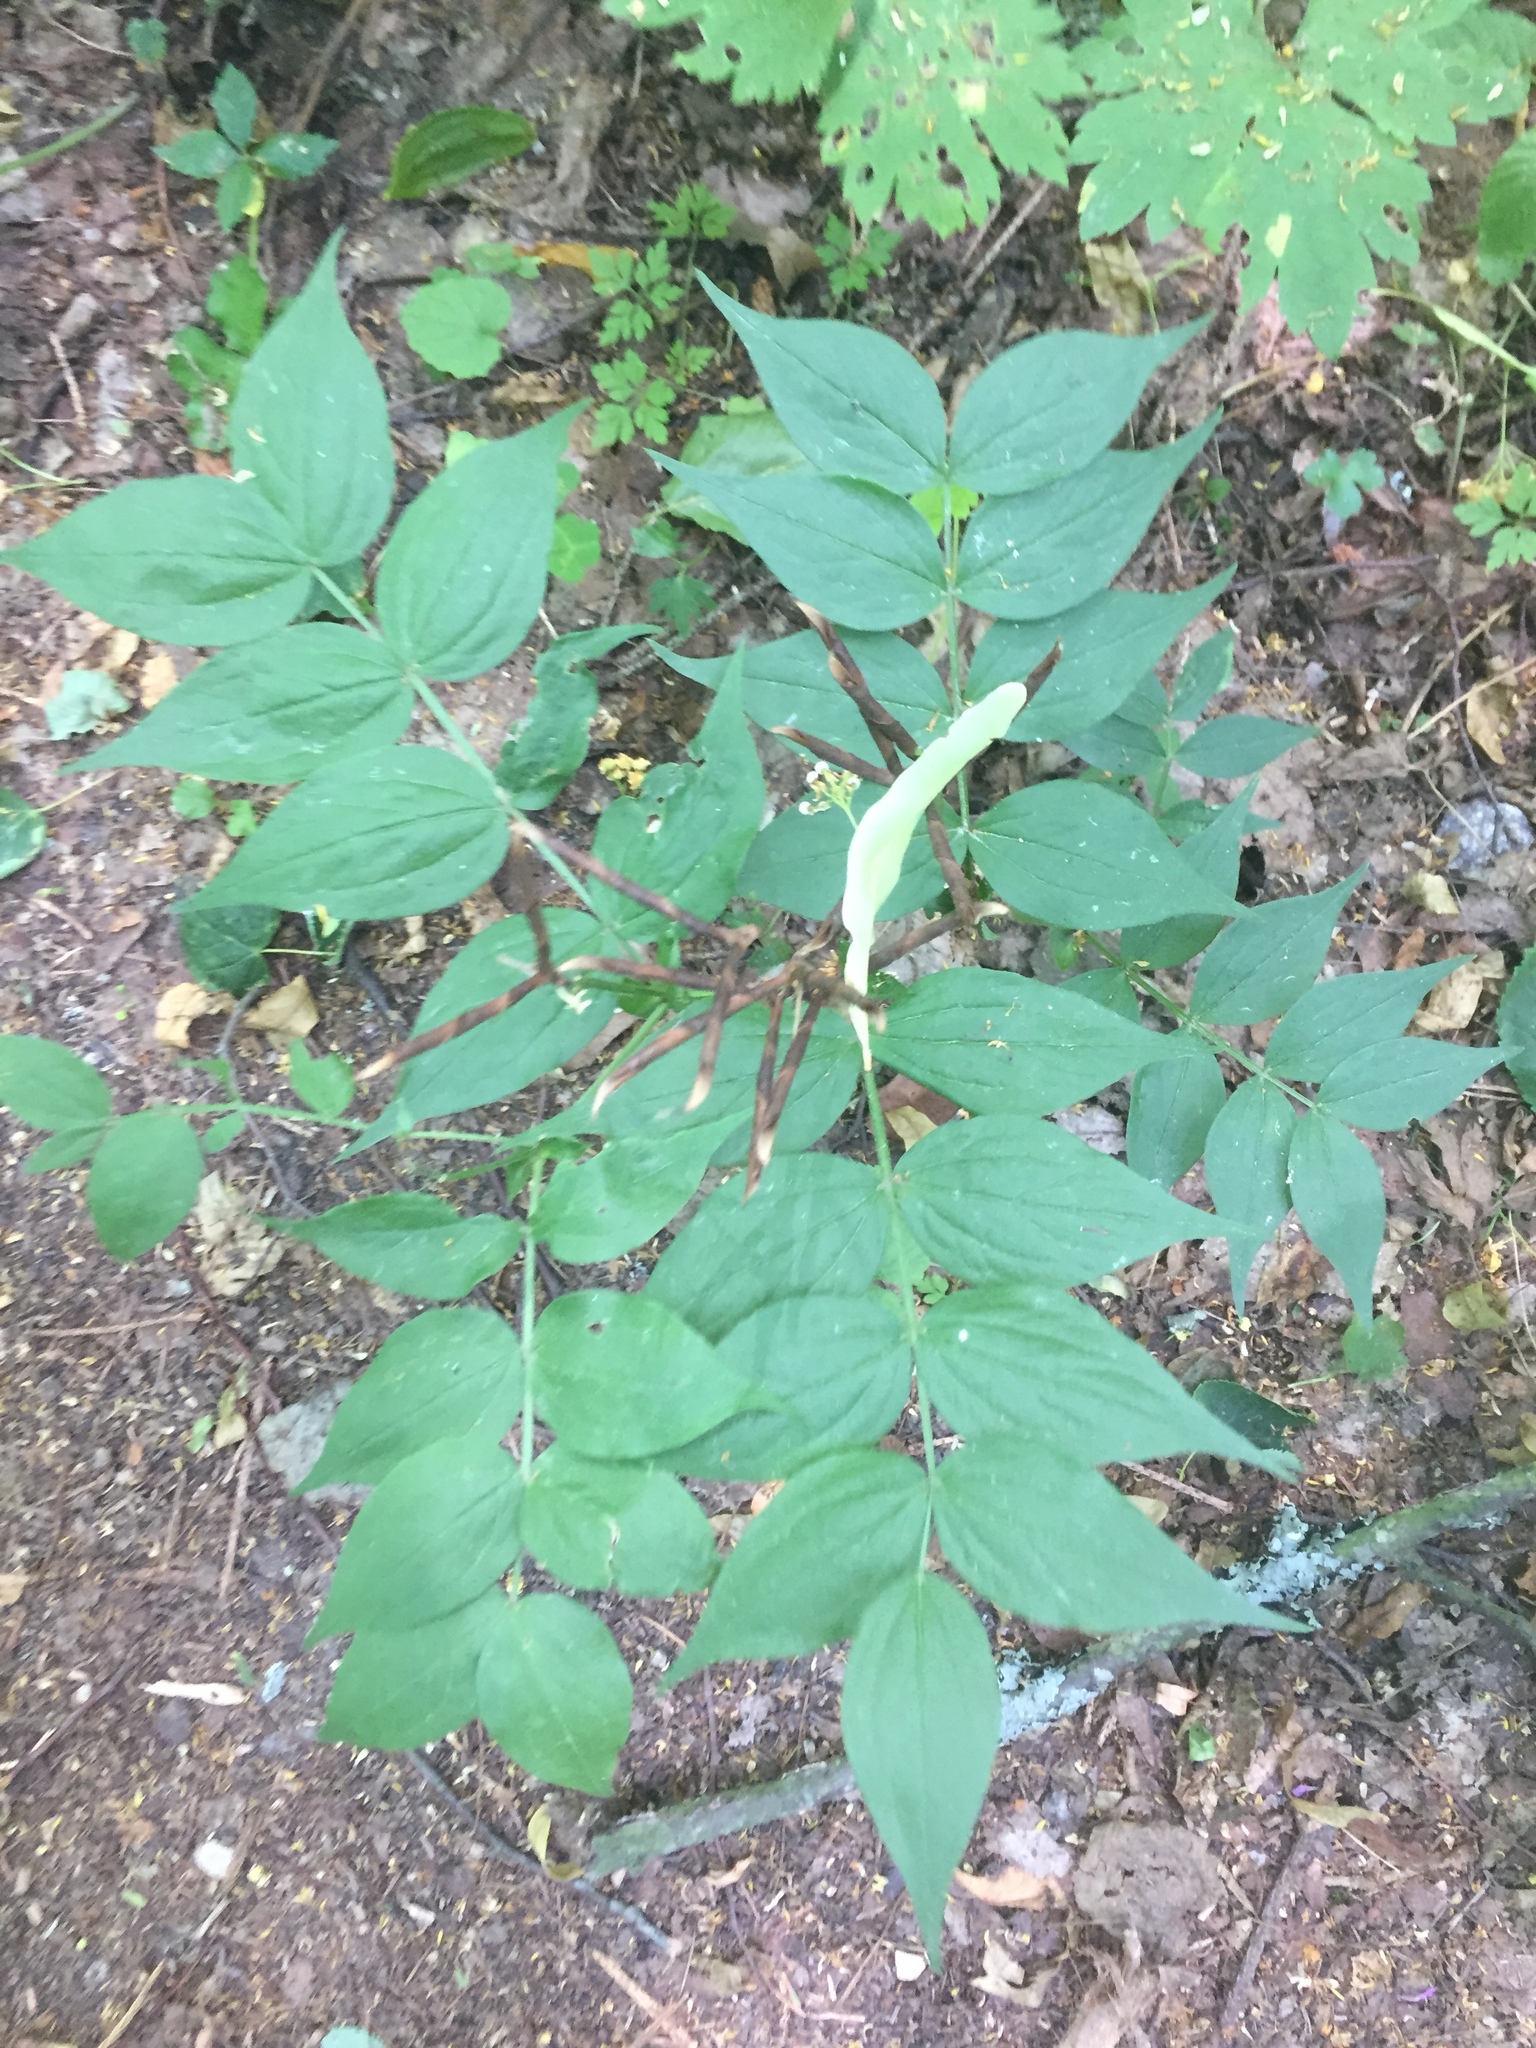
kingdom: Plantae
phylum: Tracheophyta
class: Magnoliopsida
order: Fabales
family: Fabaceae
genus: Lathyrus
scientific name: Lathyrus vernus
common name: Spring pea
